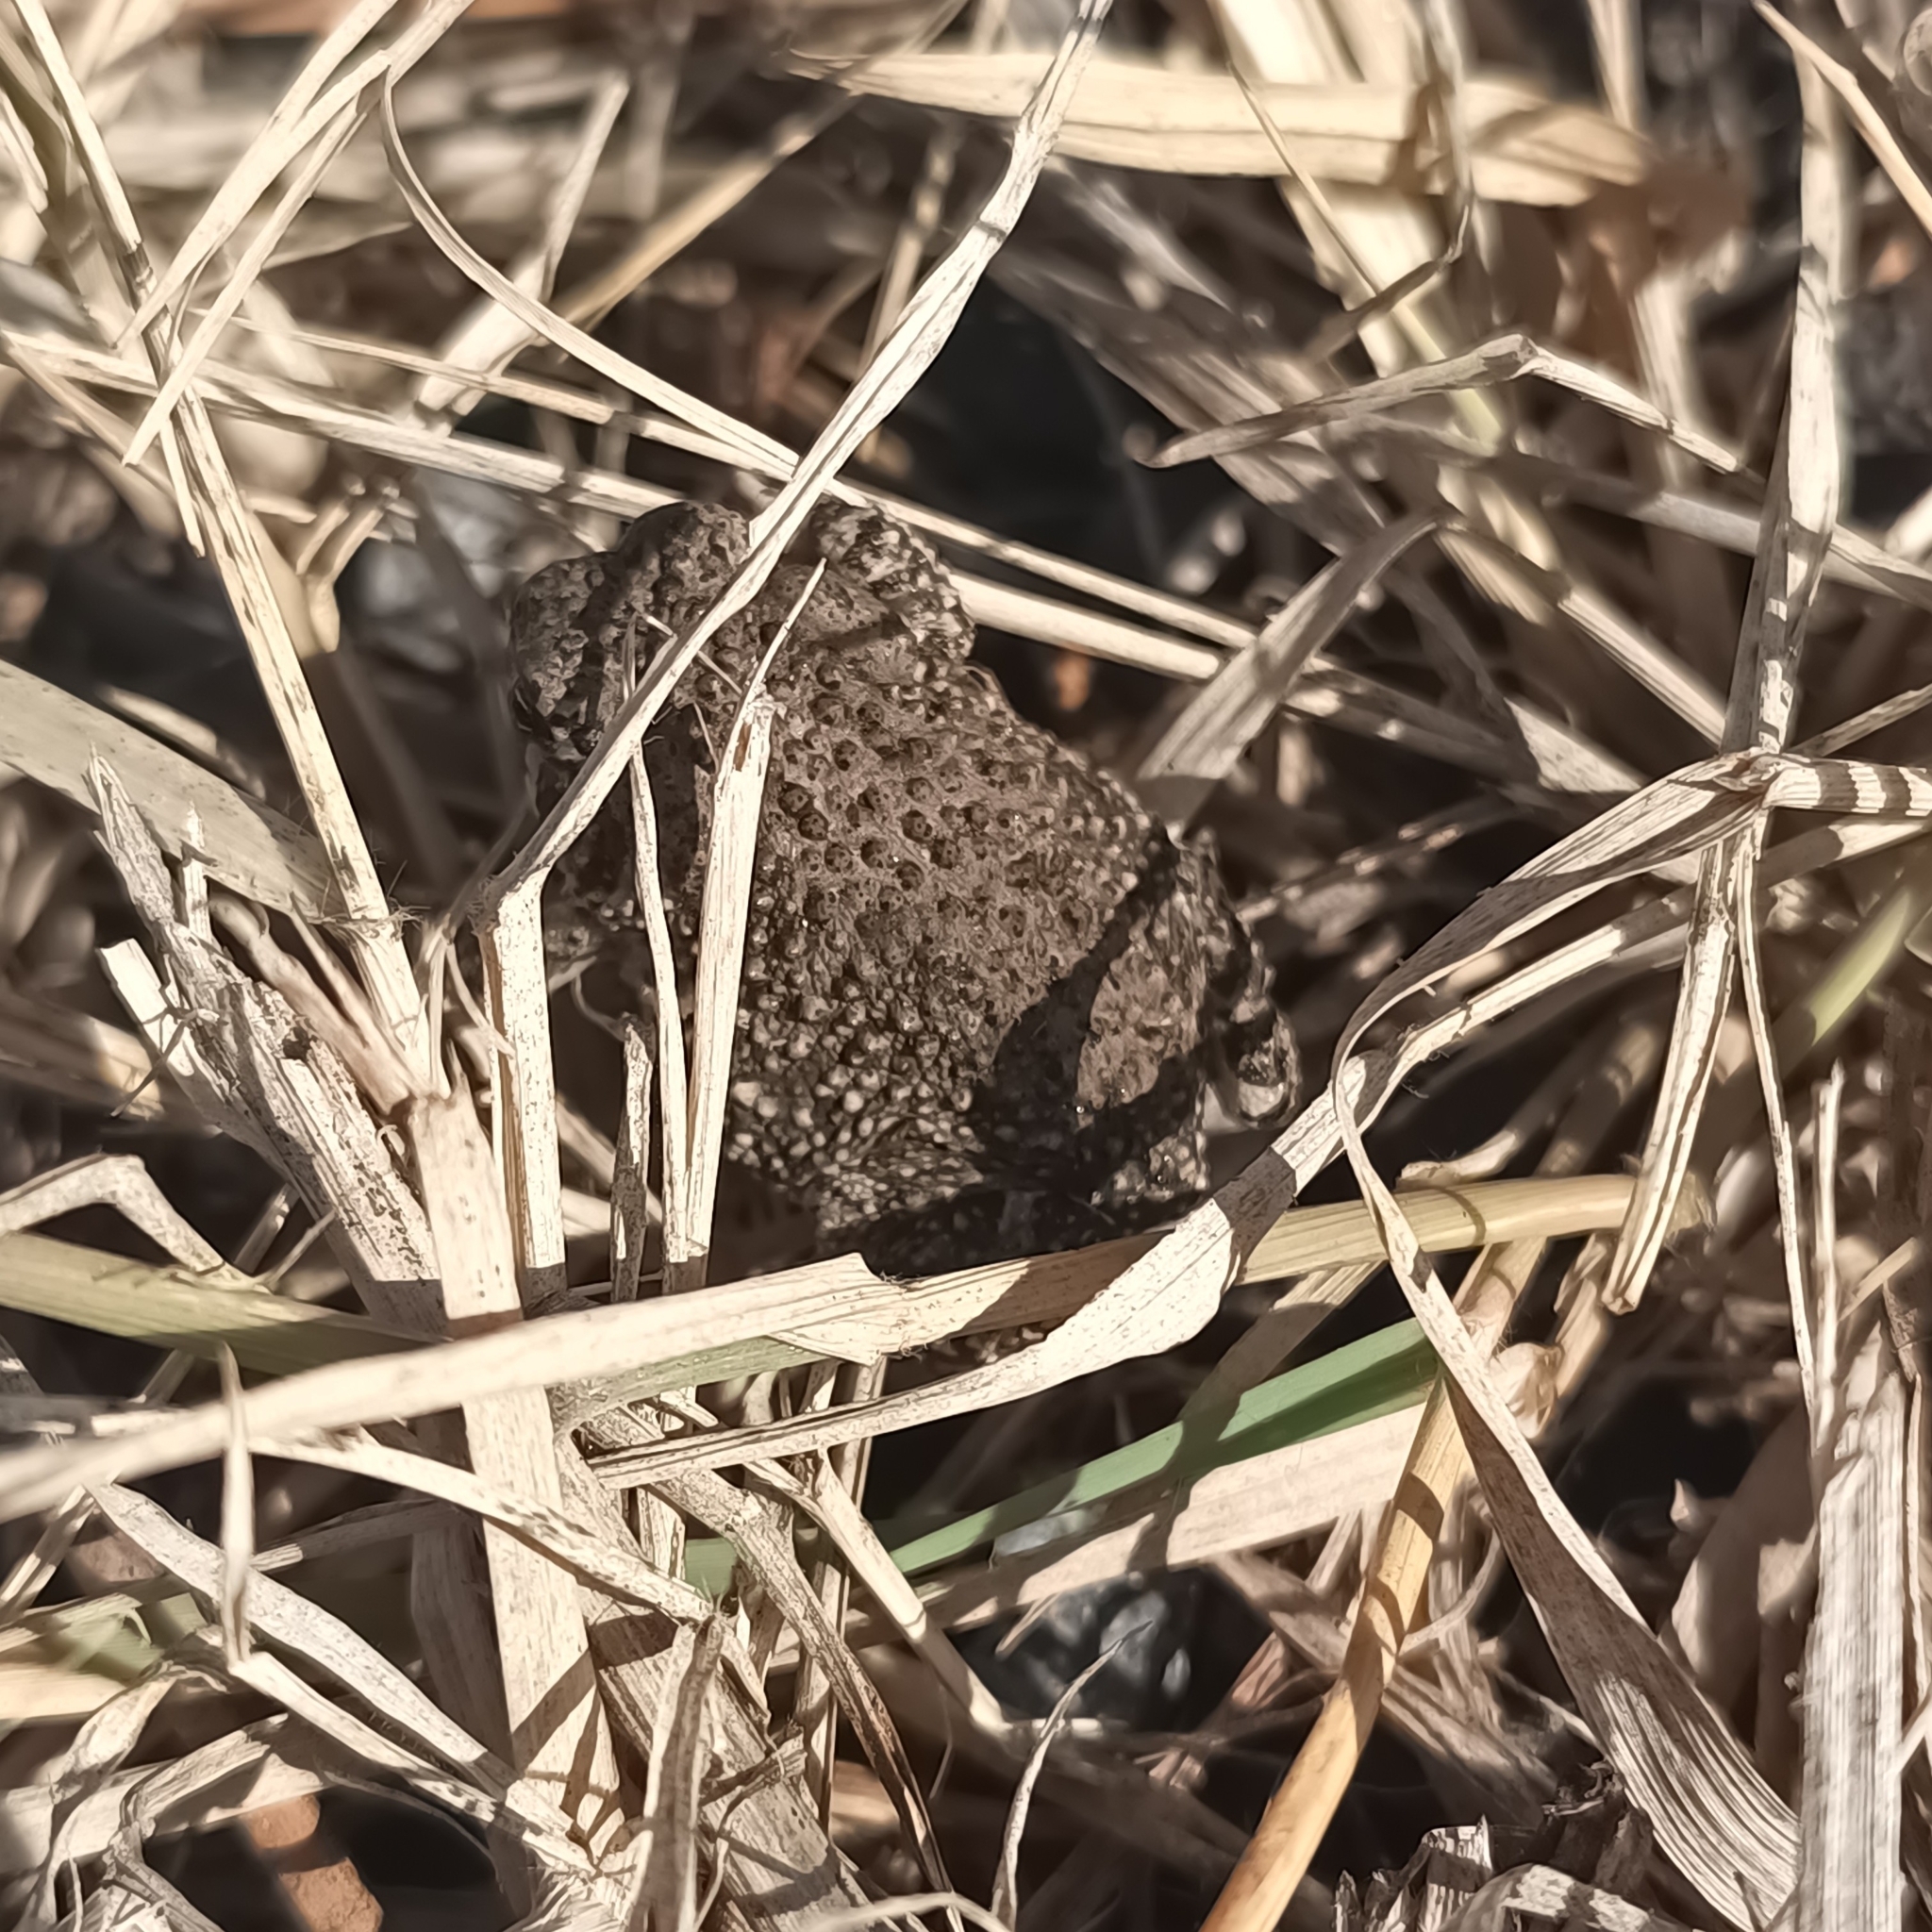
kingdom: Animalia
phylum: Chordata
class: Amphibia
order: Anura
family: Bufonidae
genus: Anaxyrus
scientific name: Anaxyrus compactilis
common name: Plateau toad
